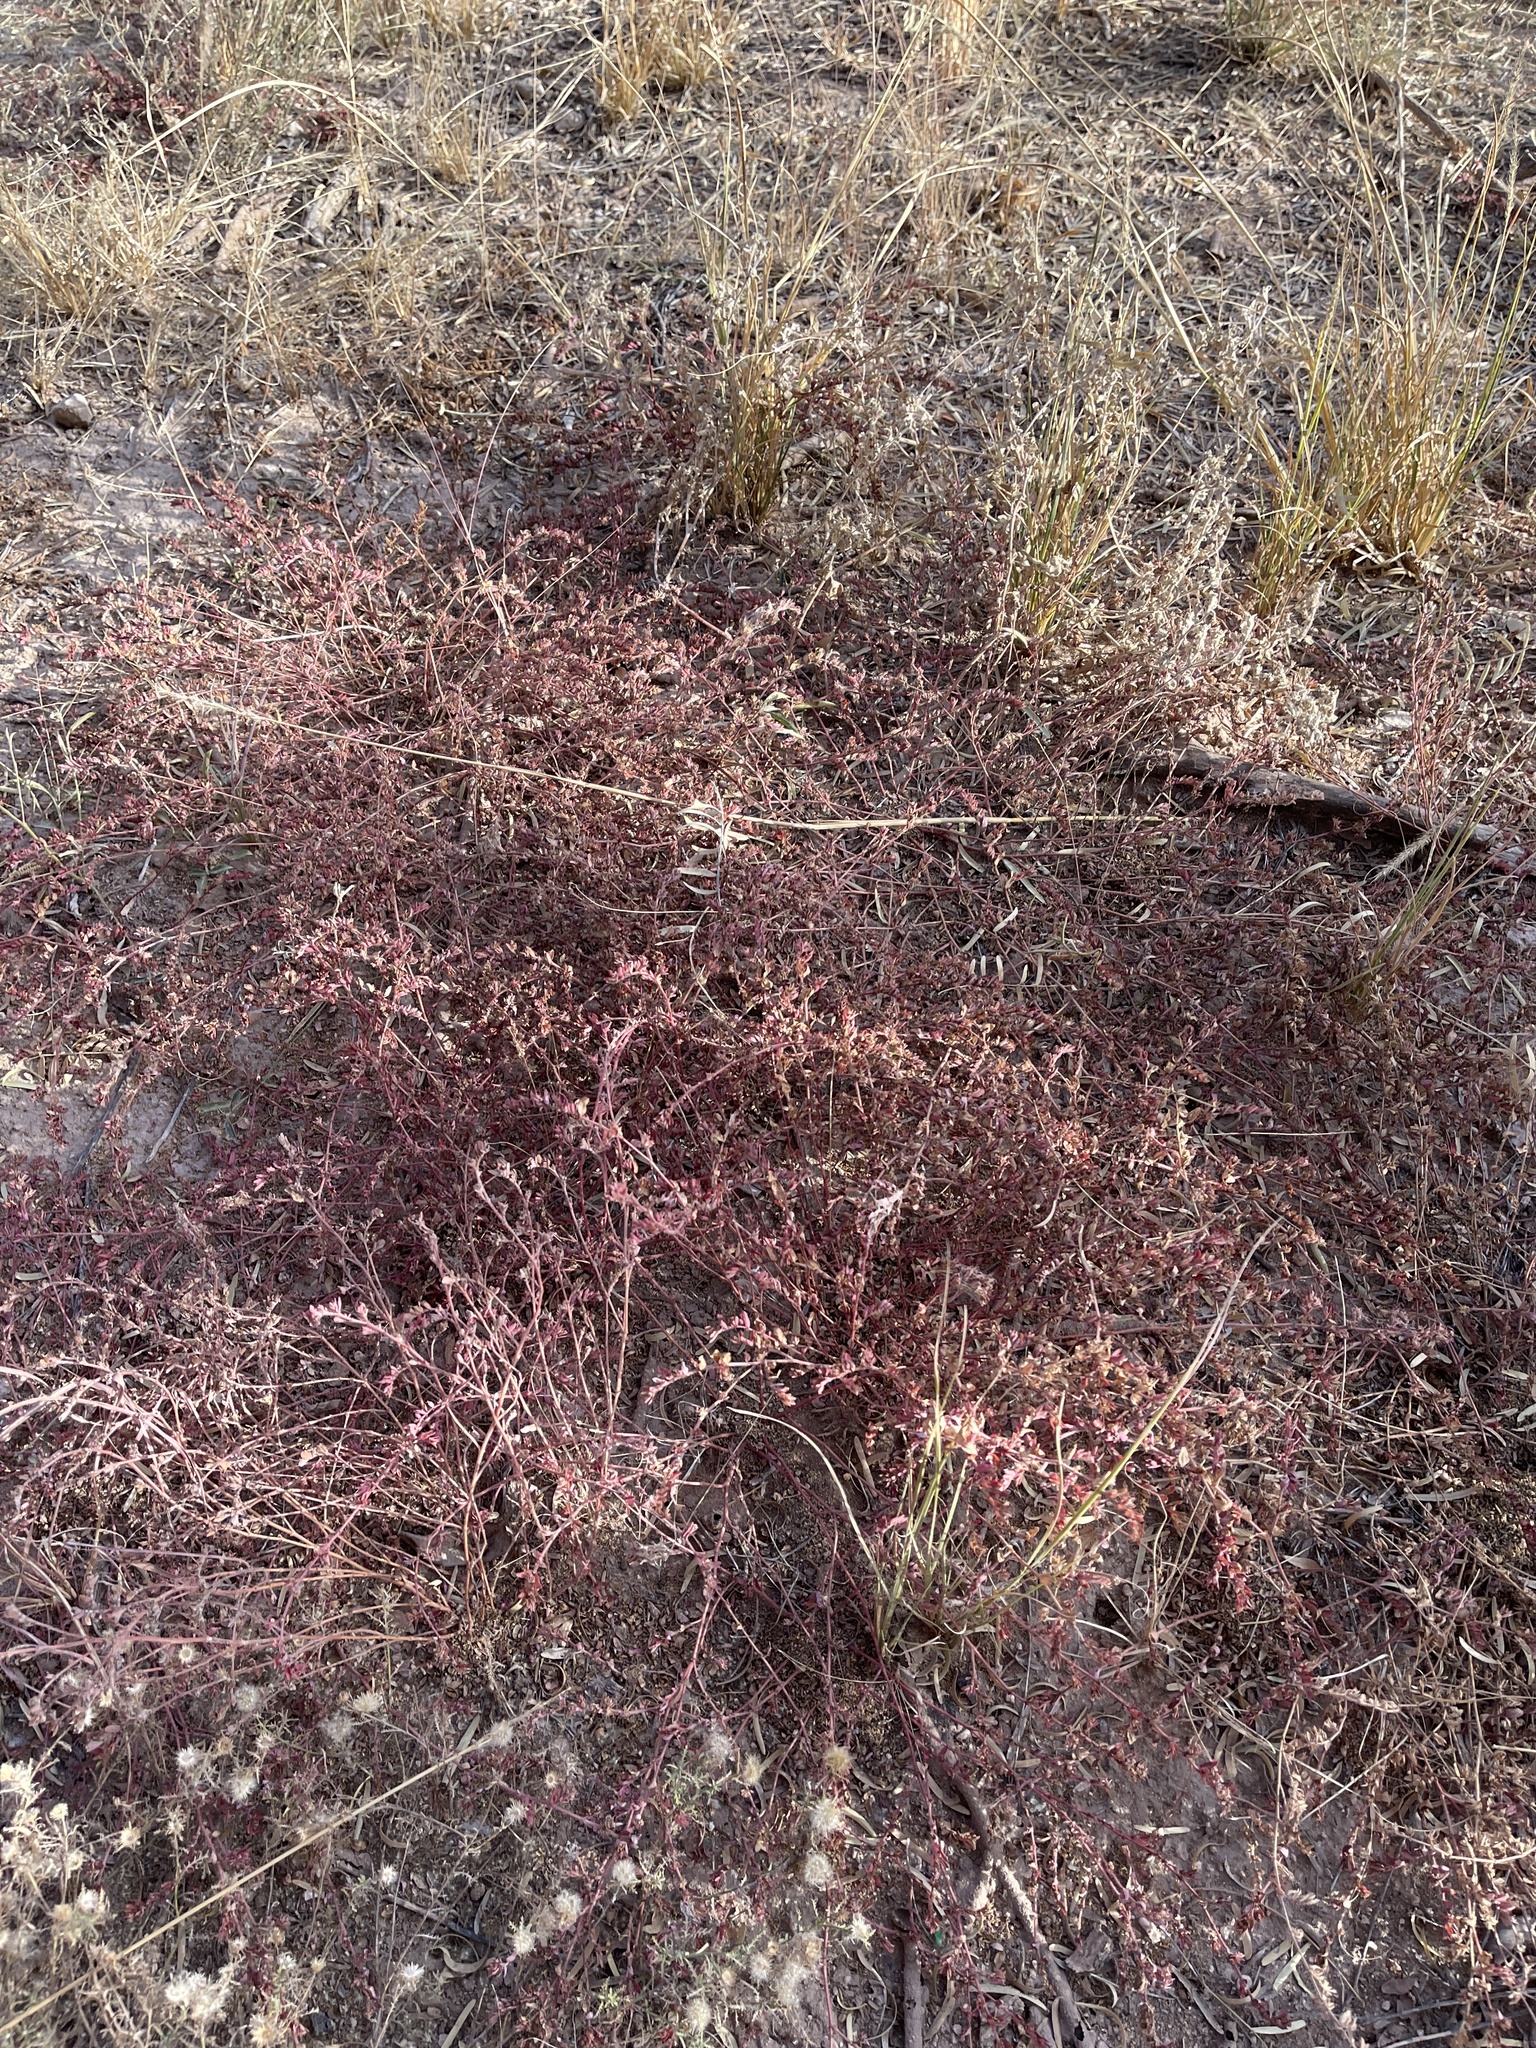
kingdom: Plantae
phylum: Tracheophyta
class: Magnoliopsida
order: Malpighiales
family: Euphorbiaceae
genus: Euphorbia
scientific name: Euphorbia maculata
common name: Spotted spurge
